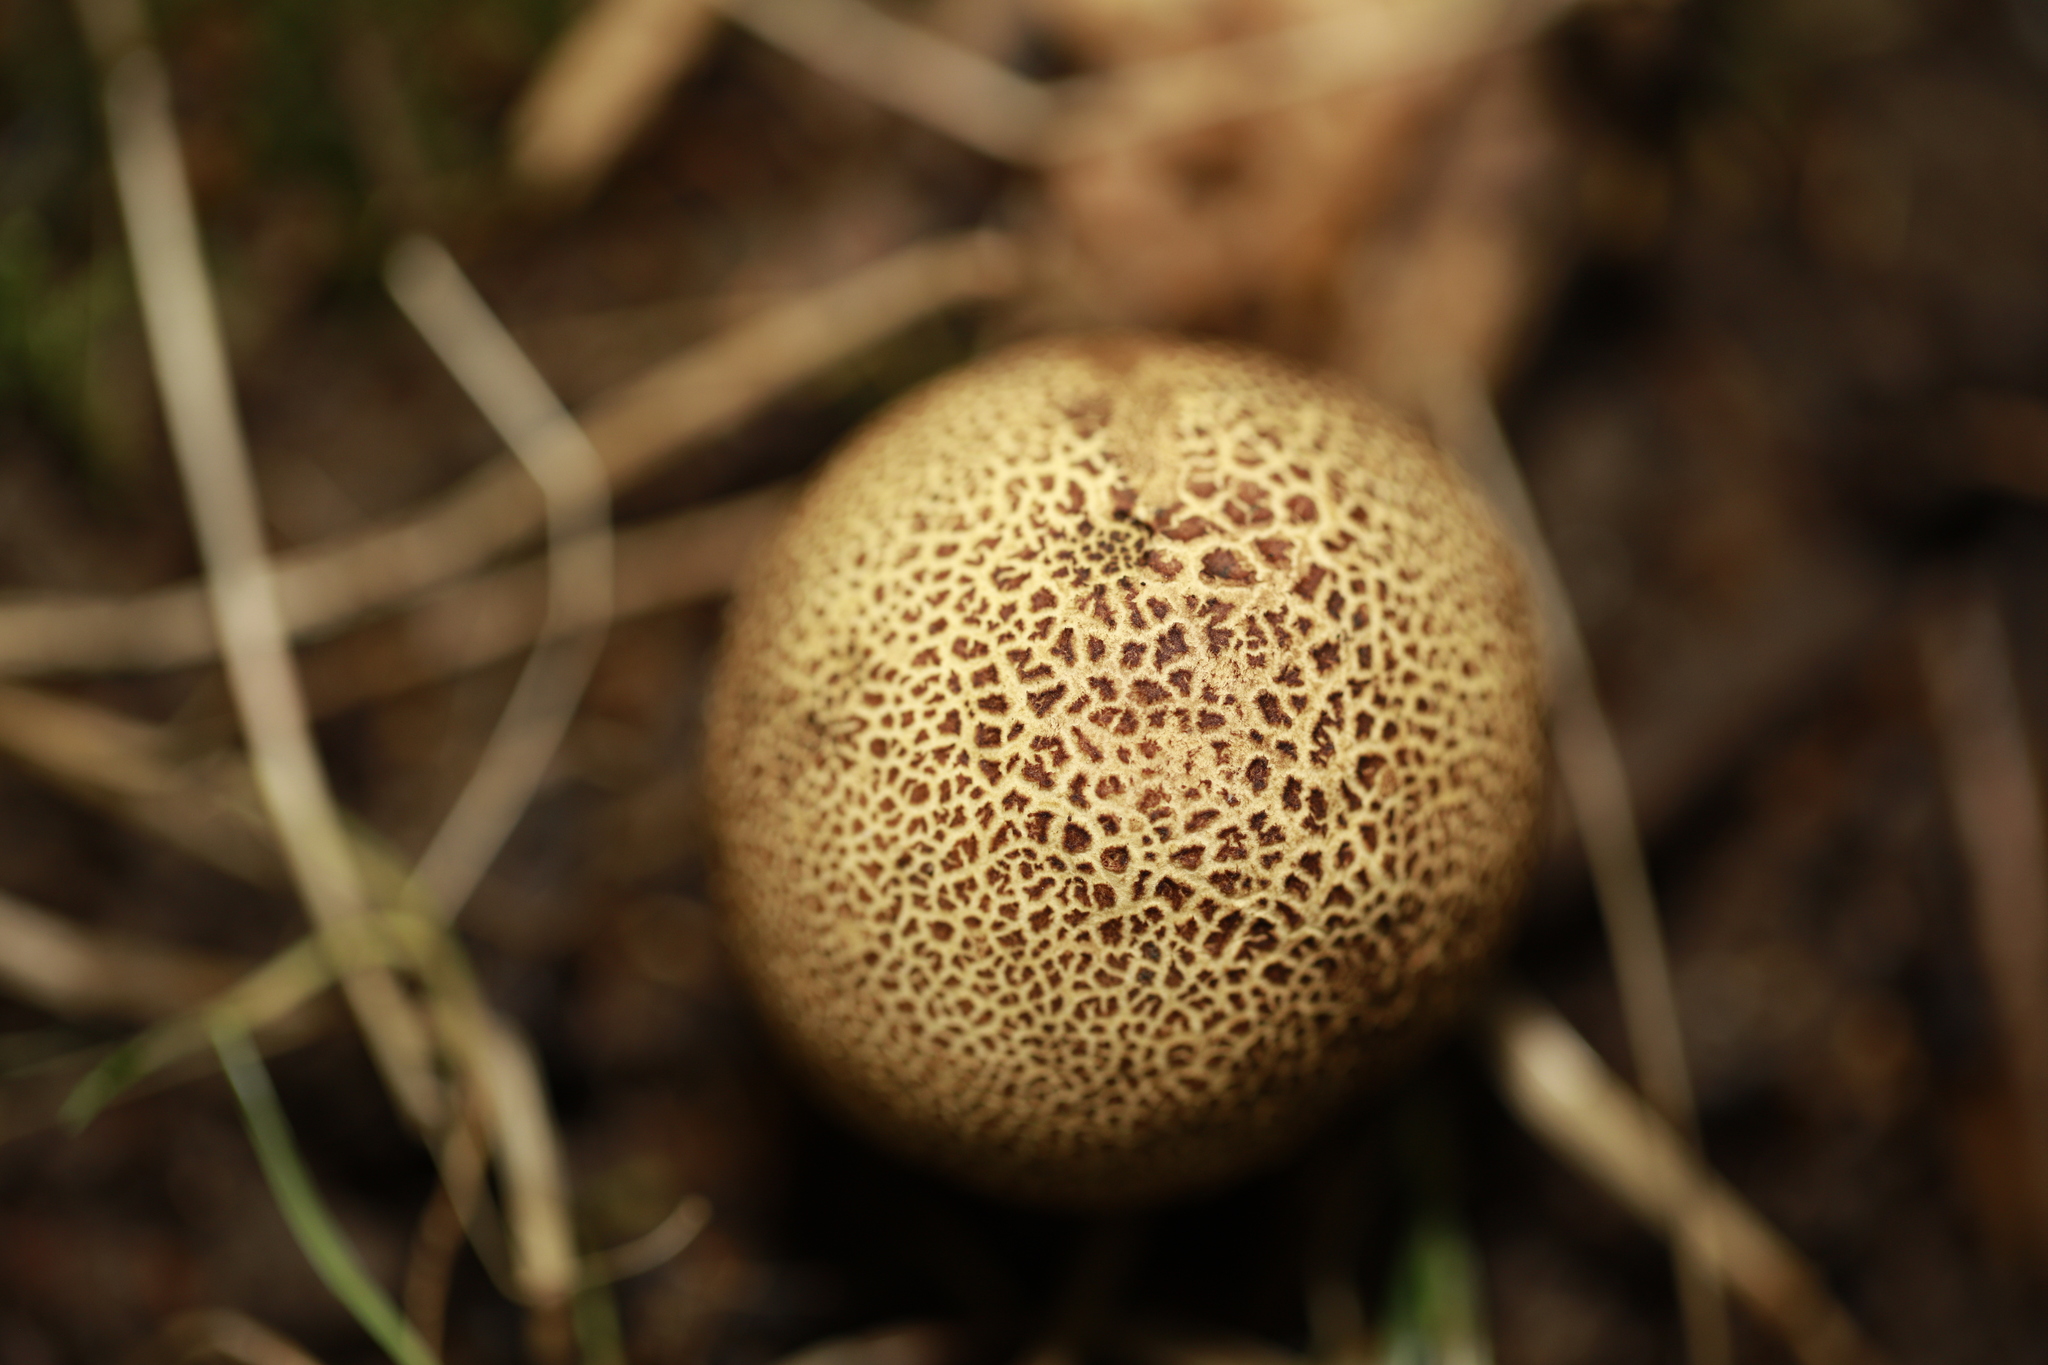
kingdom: Fungi
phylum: Basidiomycota
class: Agaricomycetes
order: Boletales
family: Sclerodermataceae
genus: Scleroderma
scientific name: Scleroderma citrinum
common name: Common earthball
